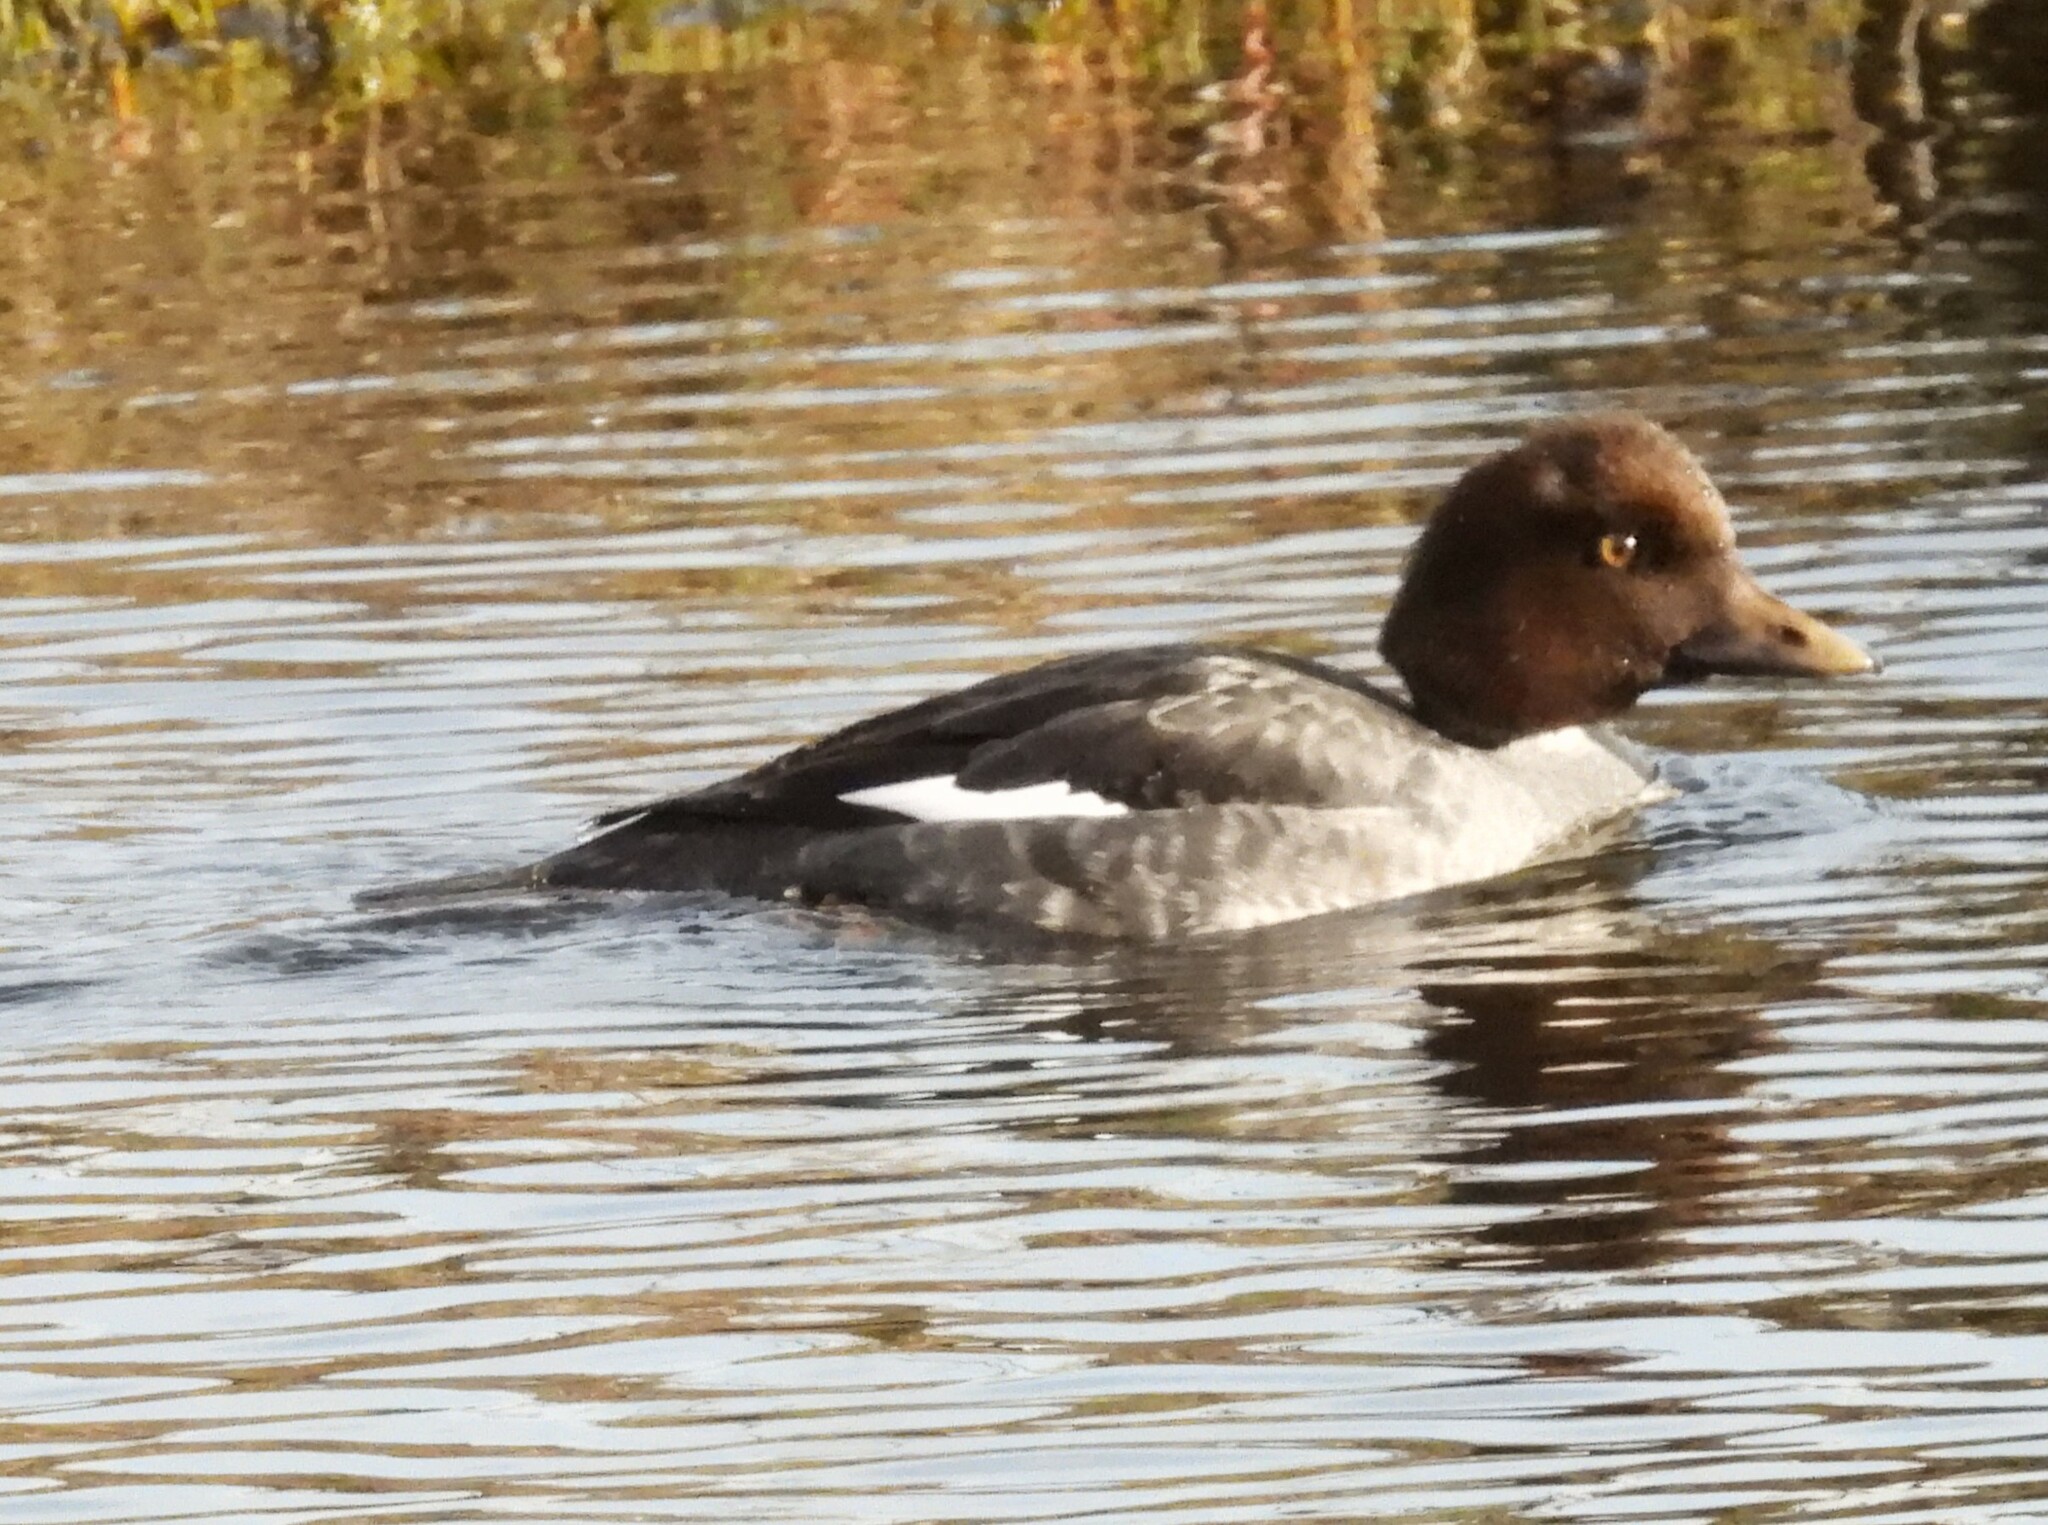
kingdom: Animalia
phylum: Chordata
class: Aves
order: Anseriformes
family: Anatidae
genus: Bucephala
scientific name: Bucephala clangula
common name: Common goldeneye
